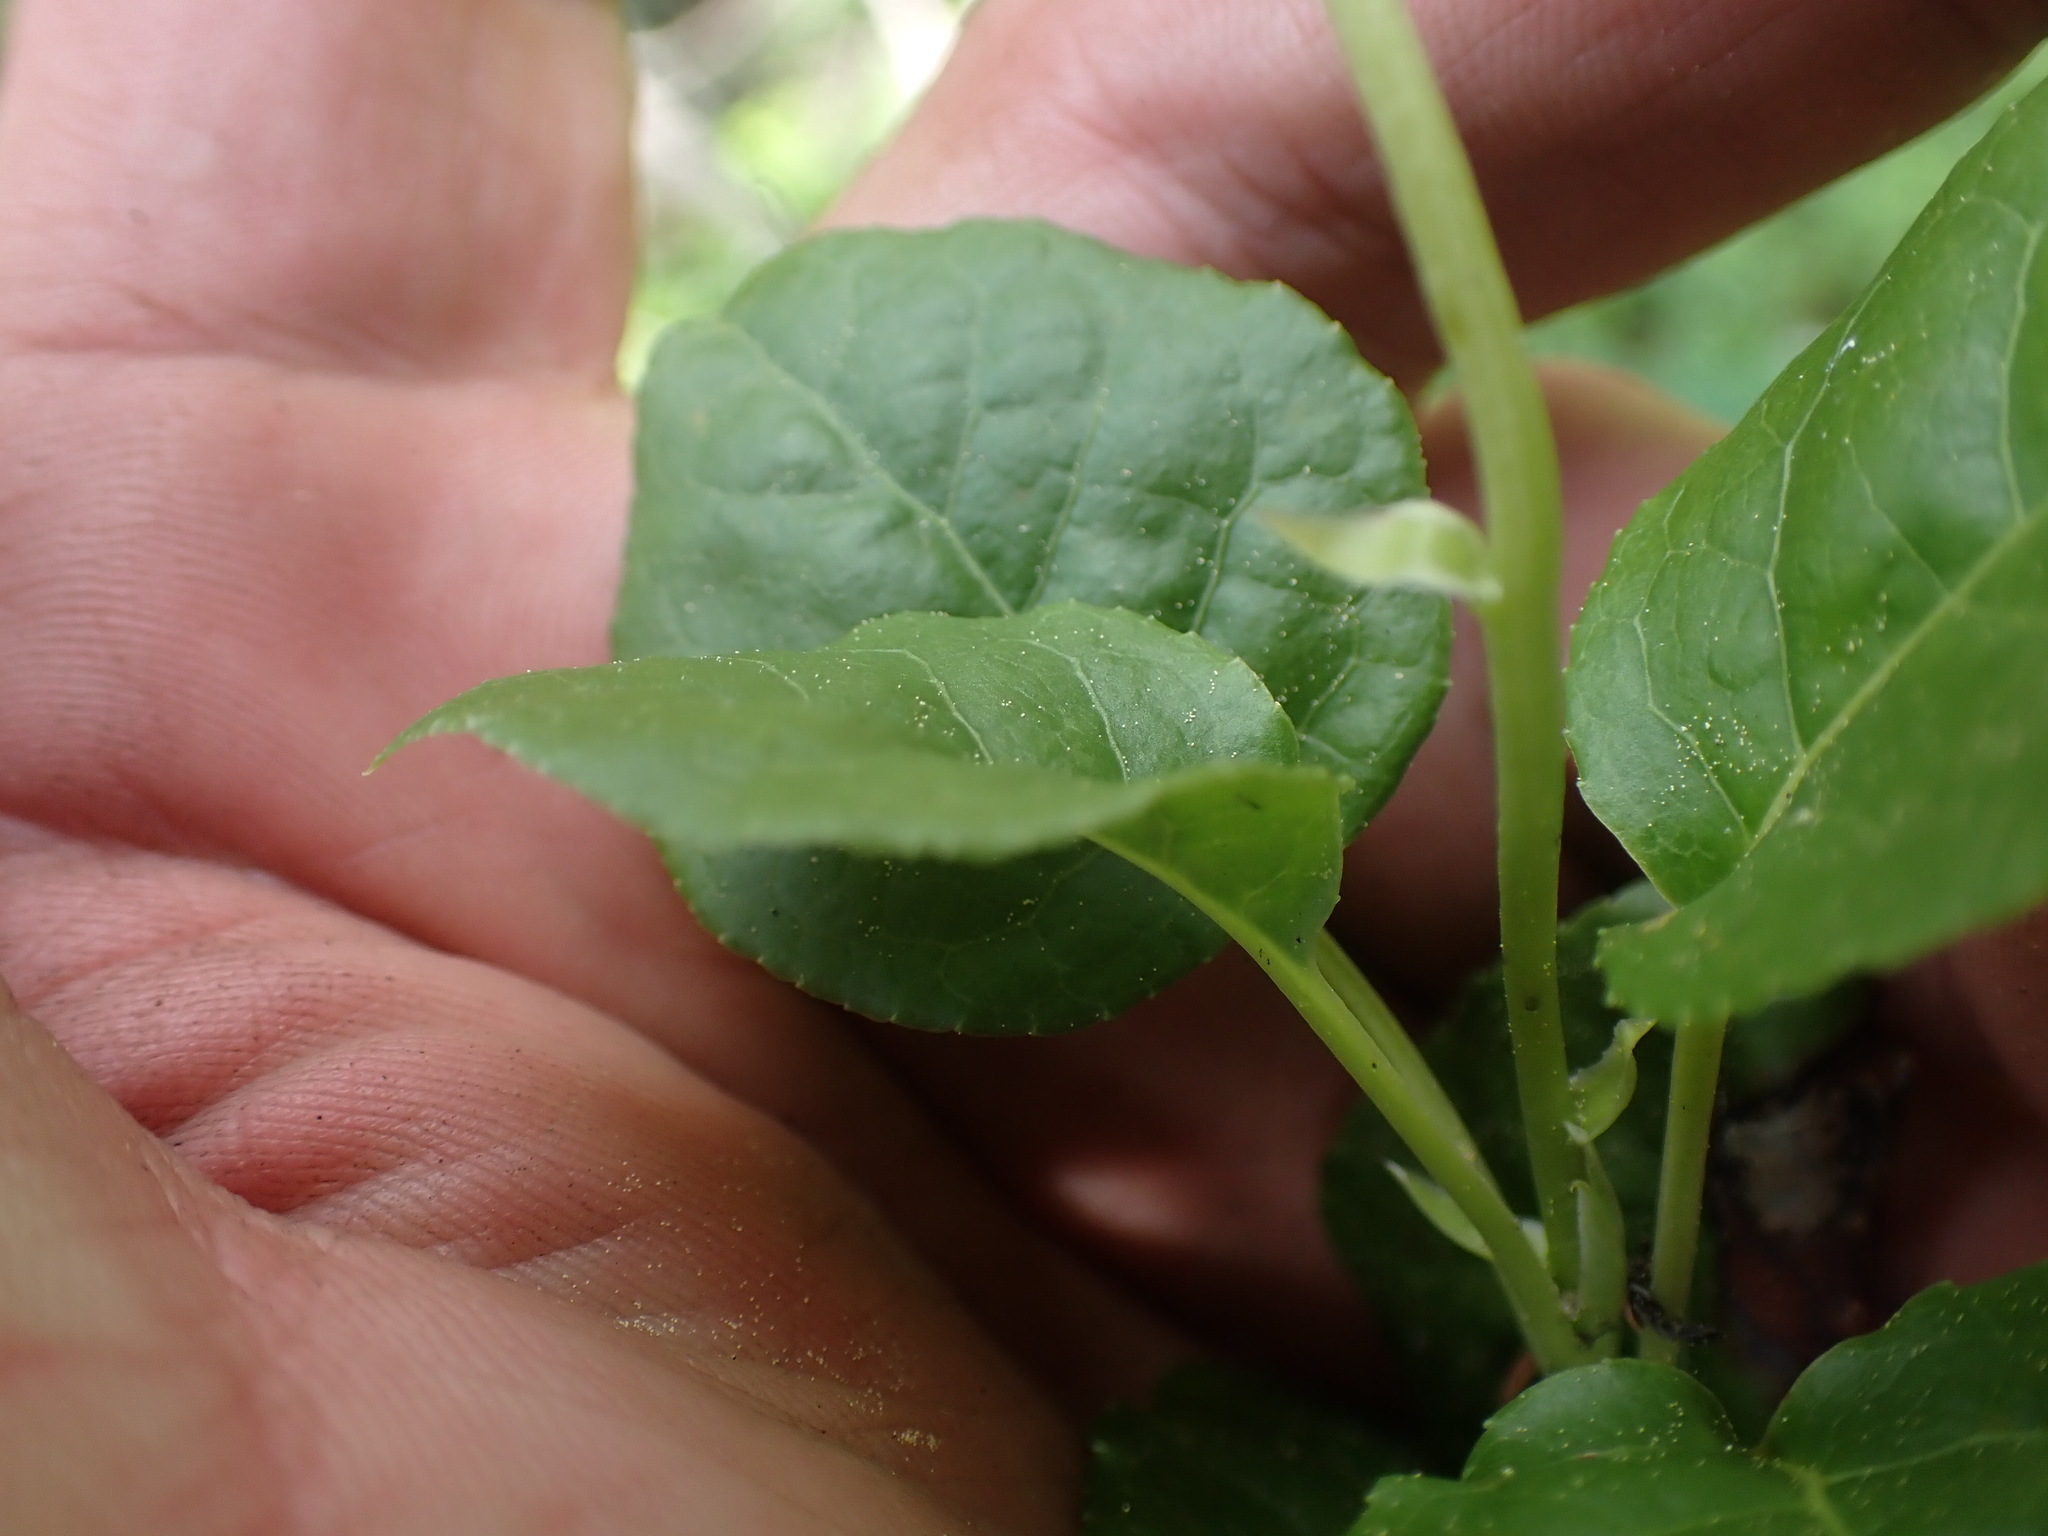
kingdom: Plantae
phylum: Tracheophyta
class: Magnoliopsida
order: Ericales
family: Ericaceae
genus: Orthilia
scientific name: Orthilia secunda
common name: One-sided orthilia
